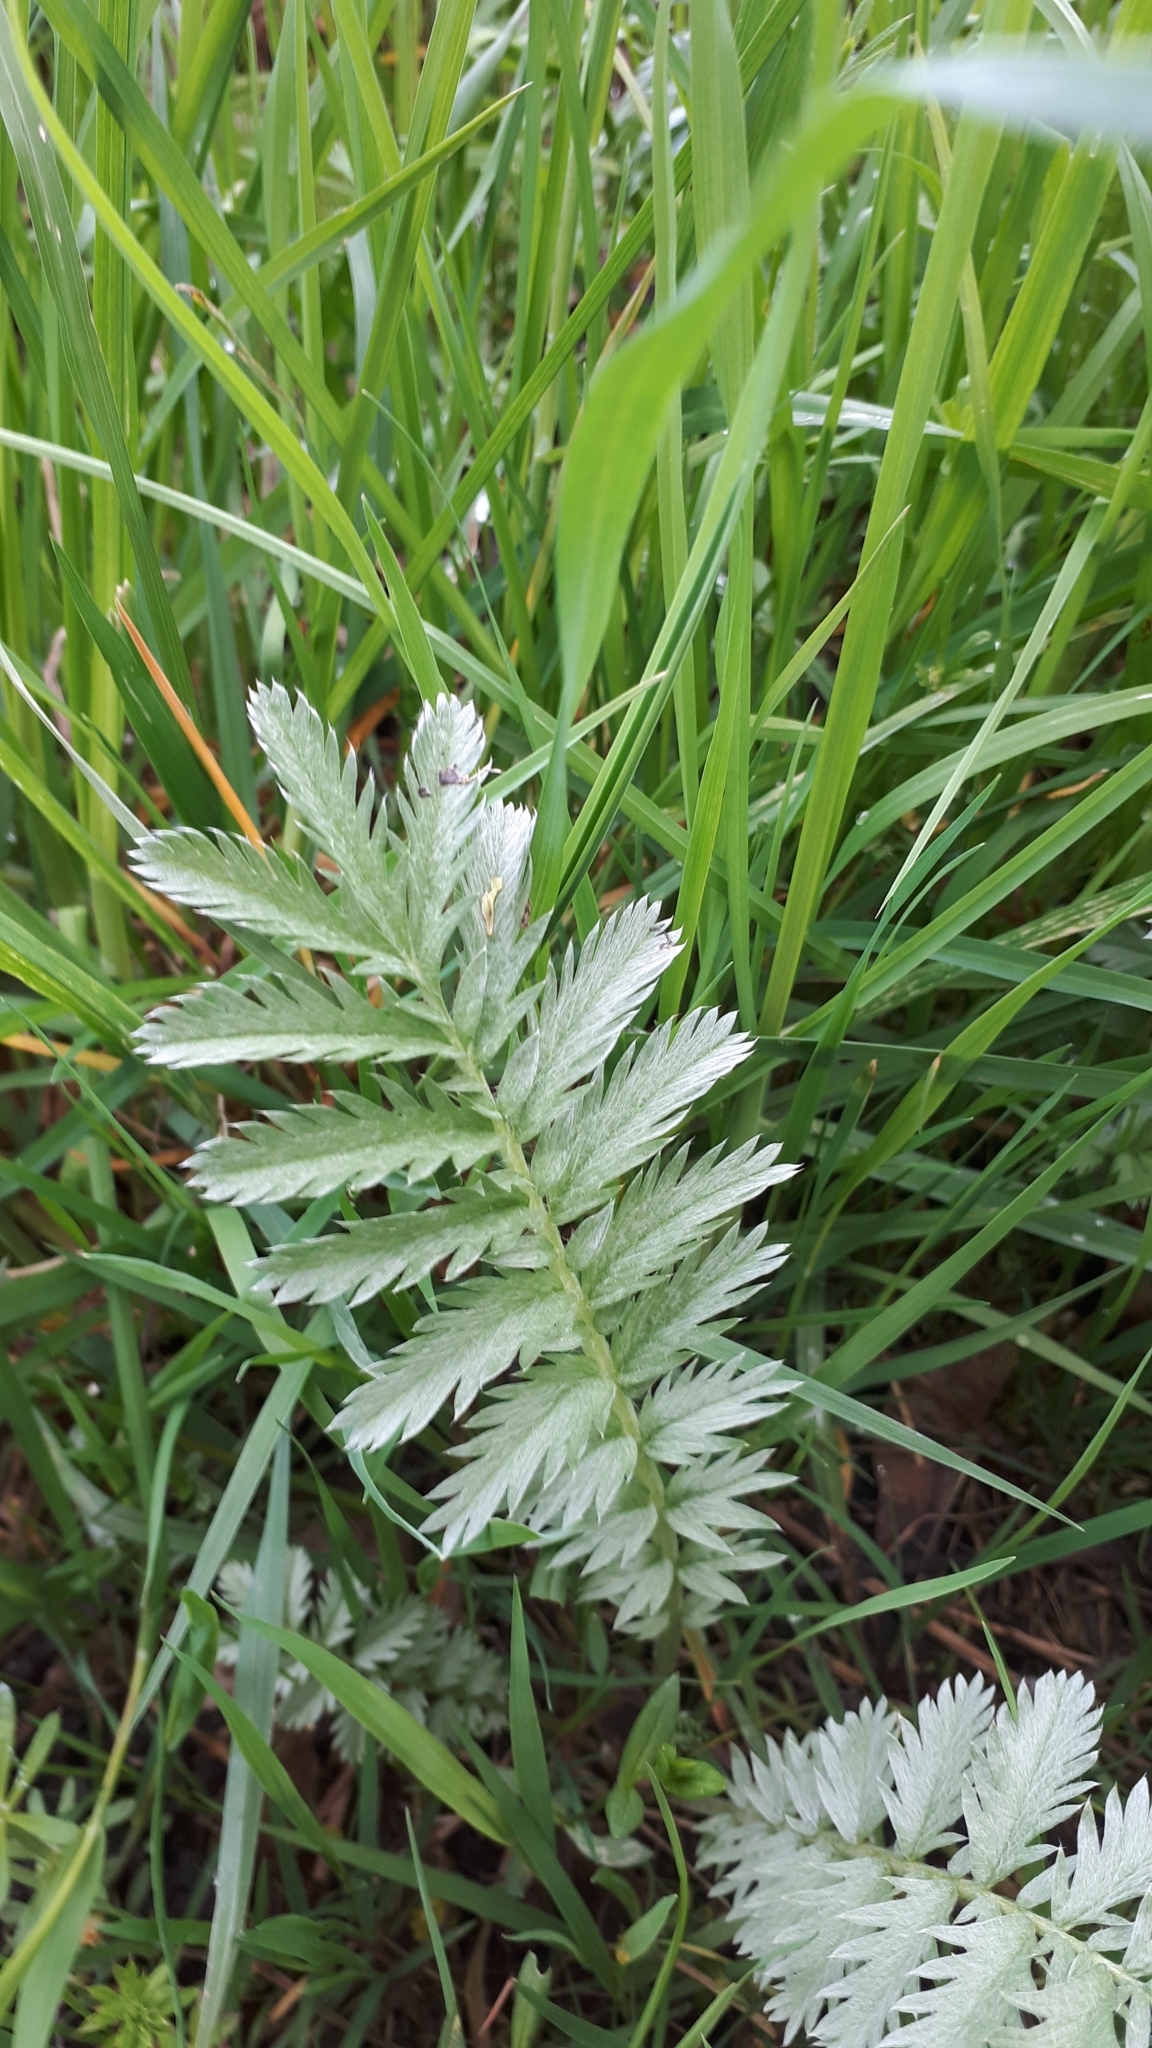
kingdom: Plantae
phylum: Tracheophyta
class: Magnoliopsida
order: Rosales
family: Rosaceae
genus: Argentina
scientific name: Argentina anserina
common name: Common silverweed
